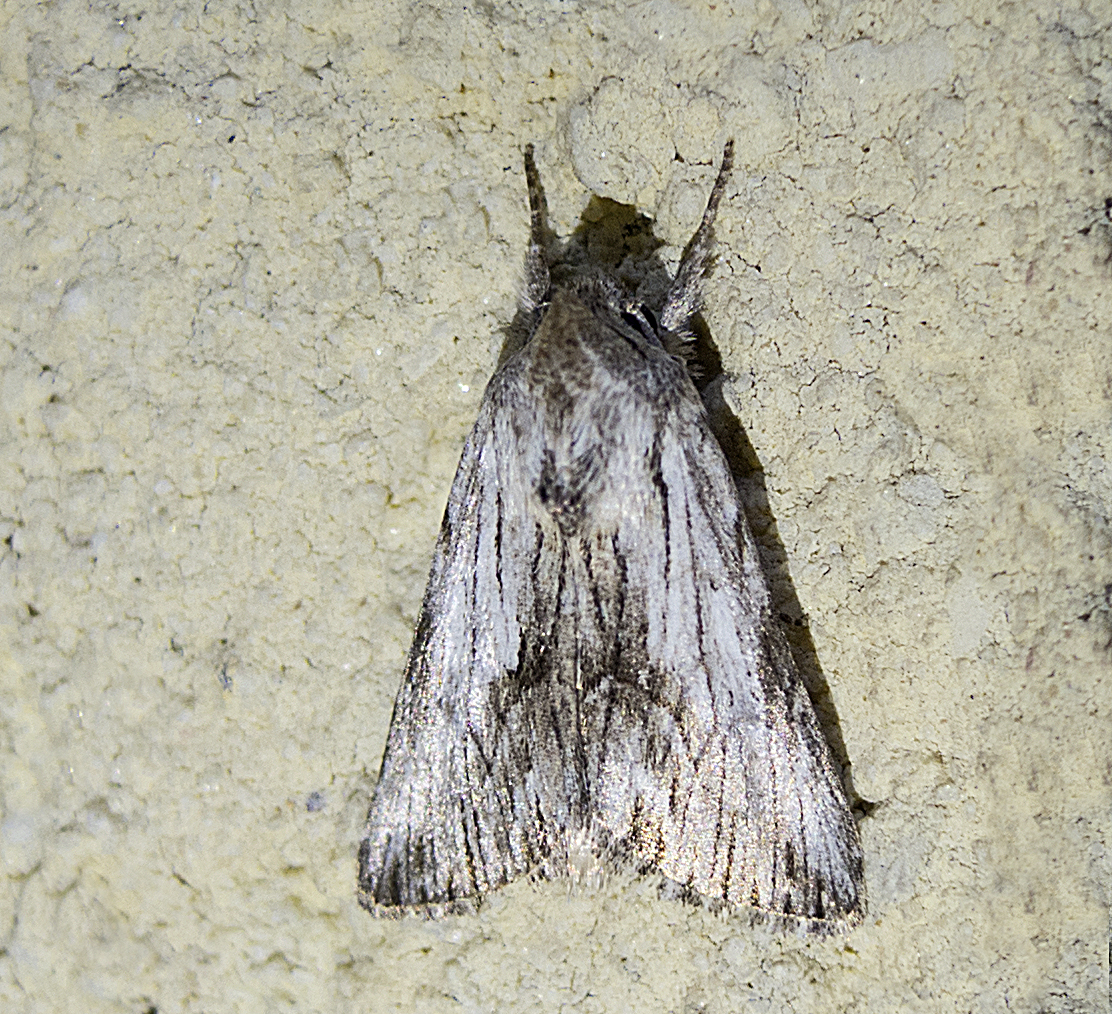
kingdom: Animalia
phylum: Arthropoda
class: Insecta
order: Lepidoptera
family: Noctuidae
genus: Calophasia
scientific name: Calophasia platyptera
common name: Antirrhinum brocade
